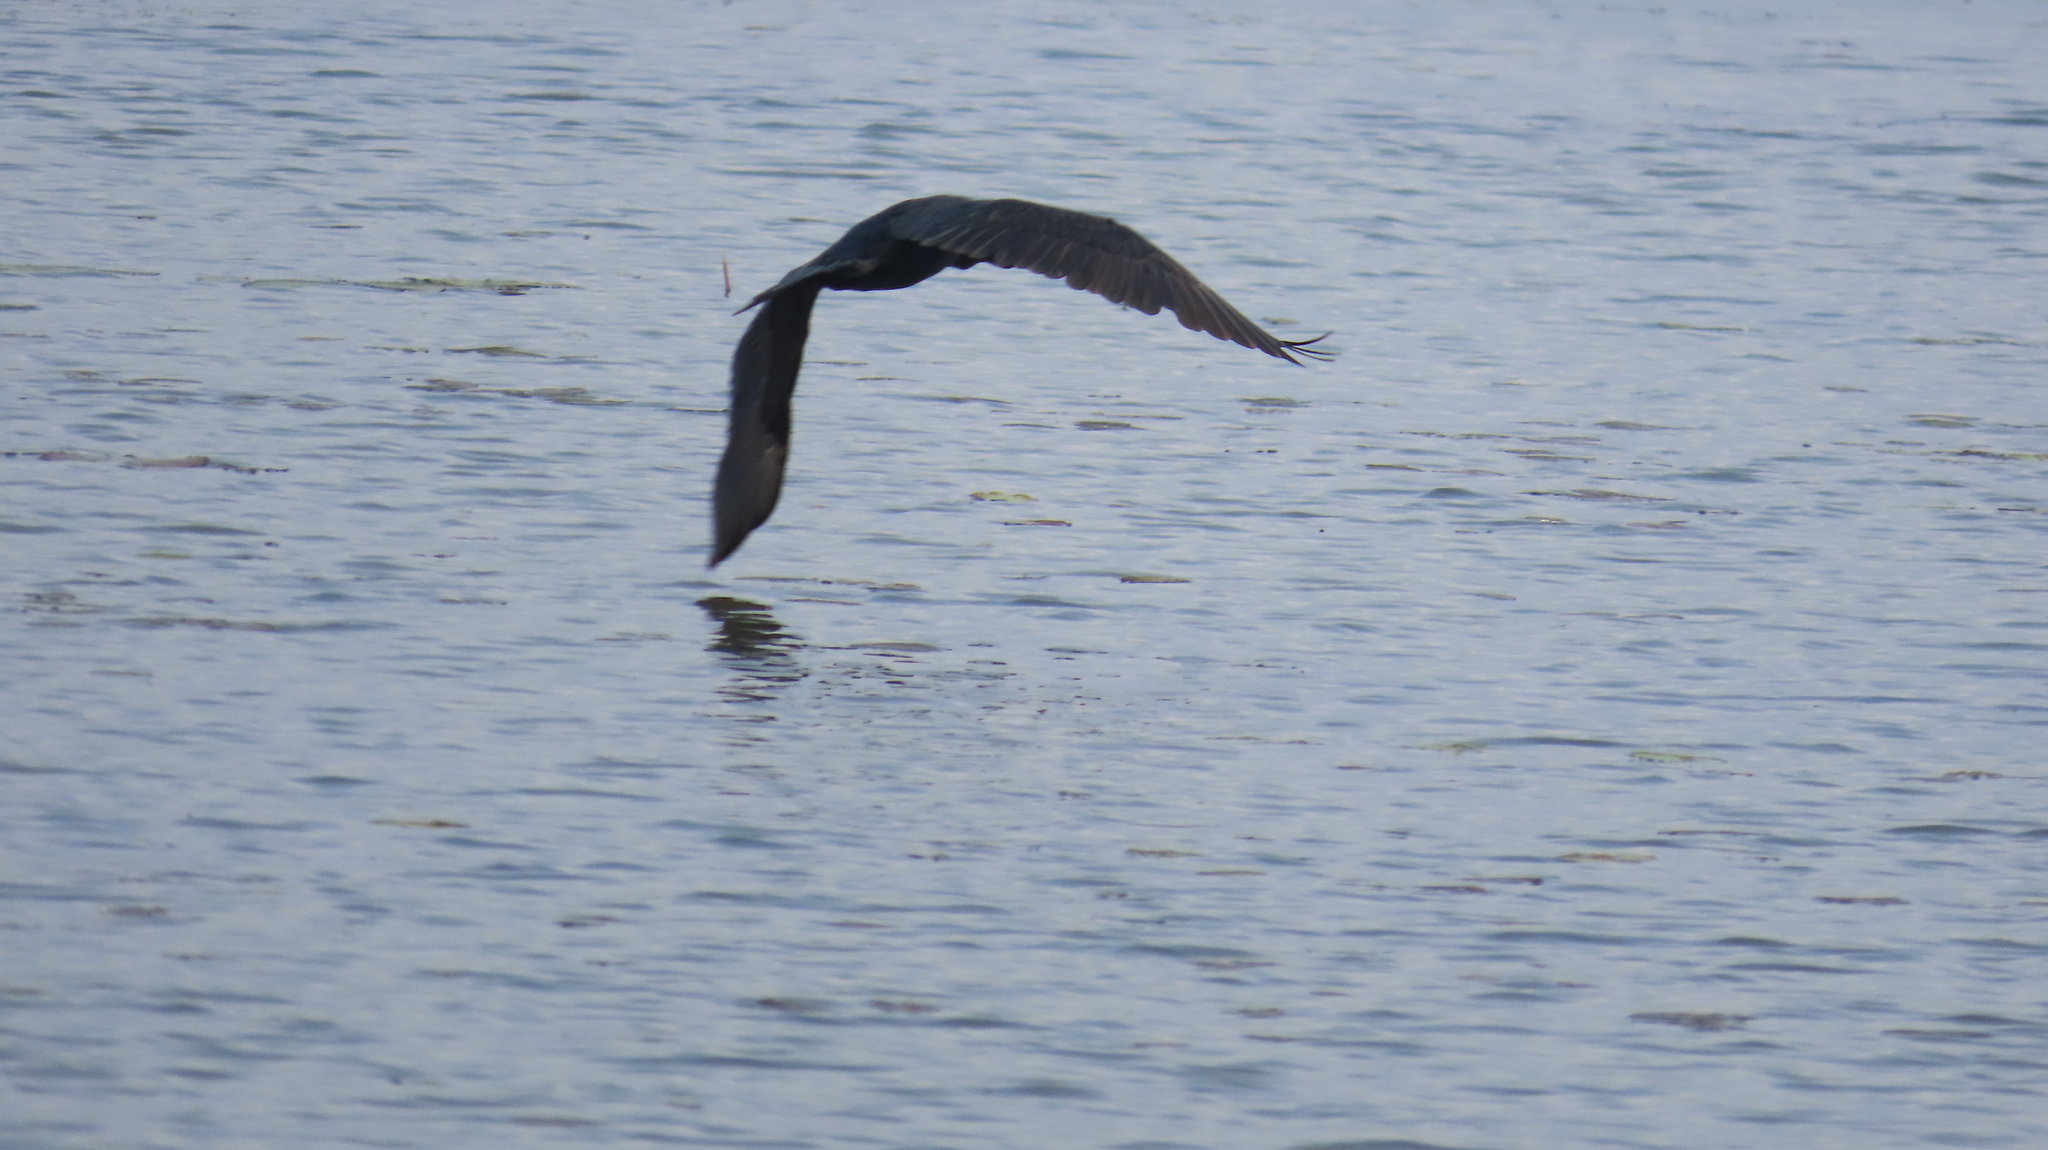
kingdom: Animalia
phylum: Chordata
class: Aves
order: Suliformes
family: Phalacrocoracidae
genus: Phalacrocorax
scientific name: Phalacrocorax fuscicollis
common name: Indian cormorant
